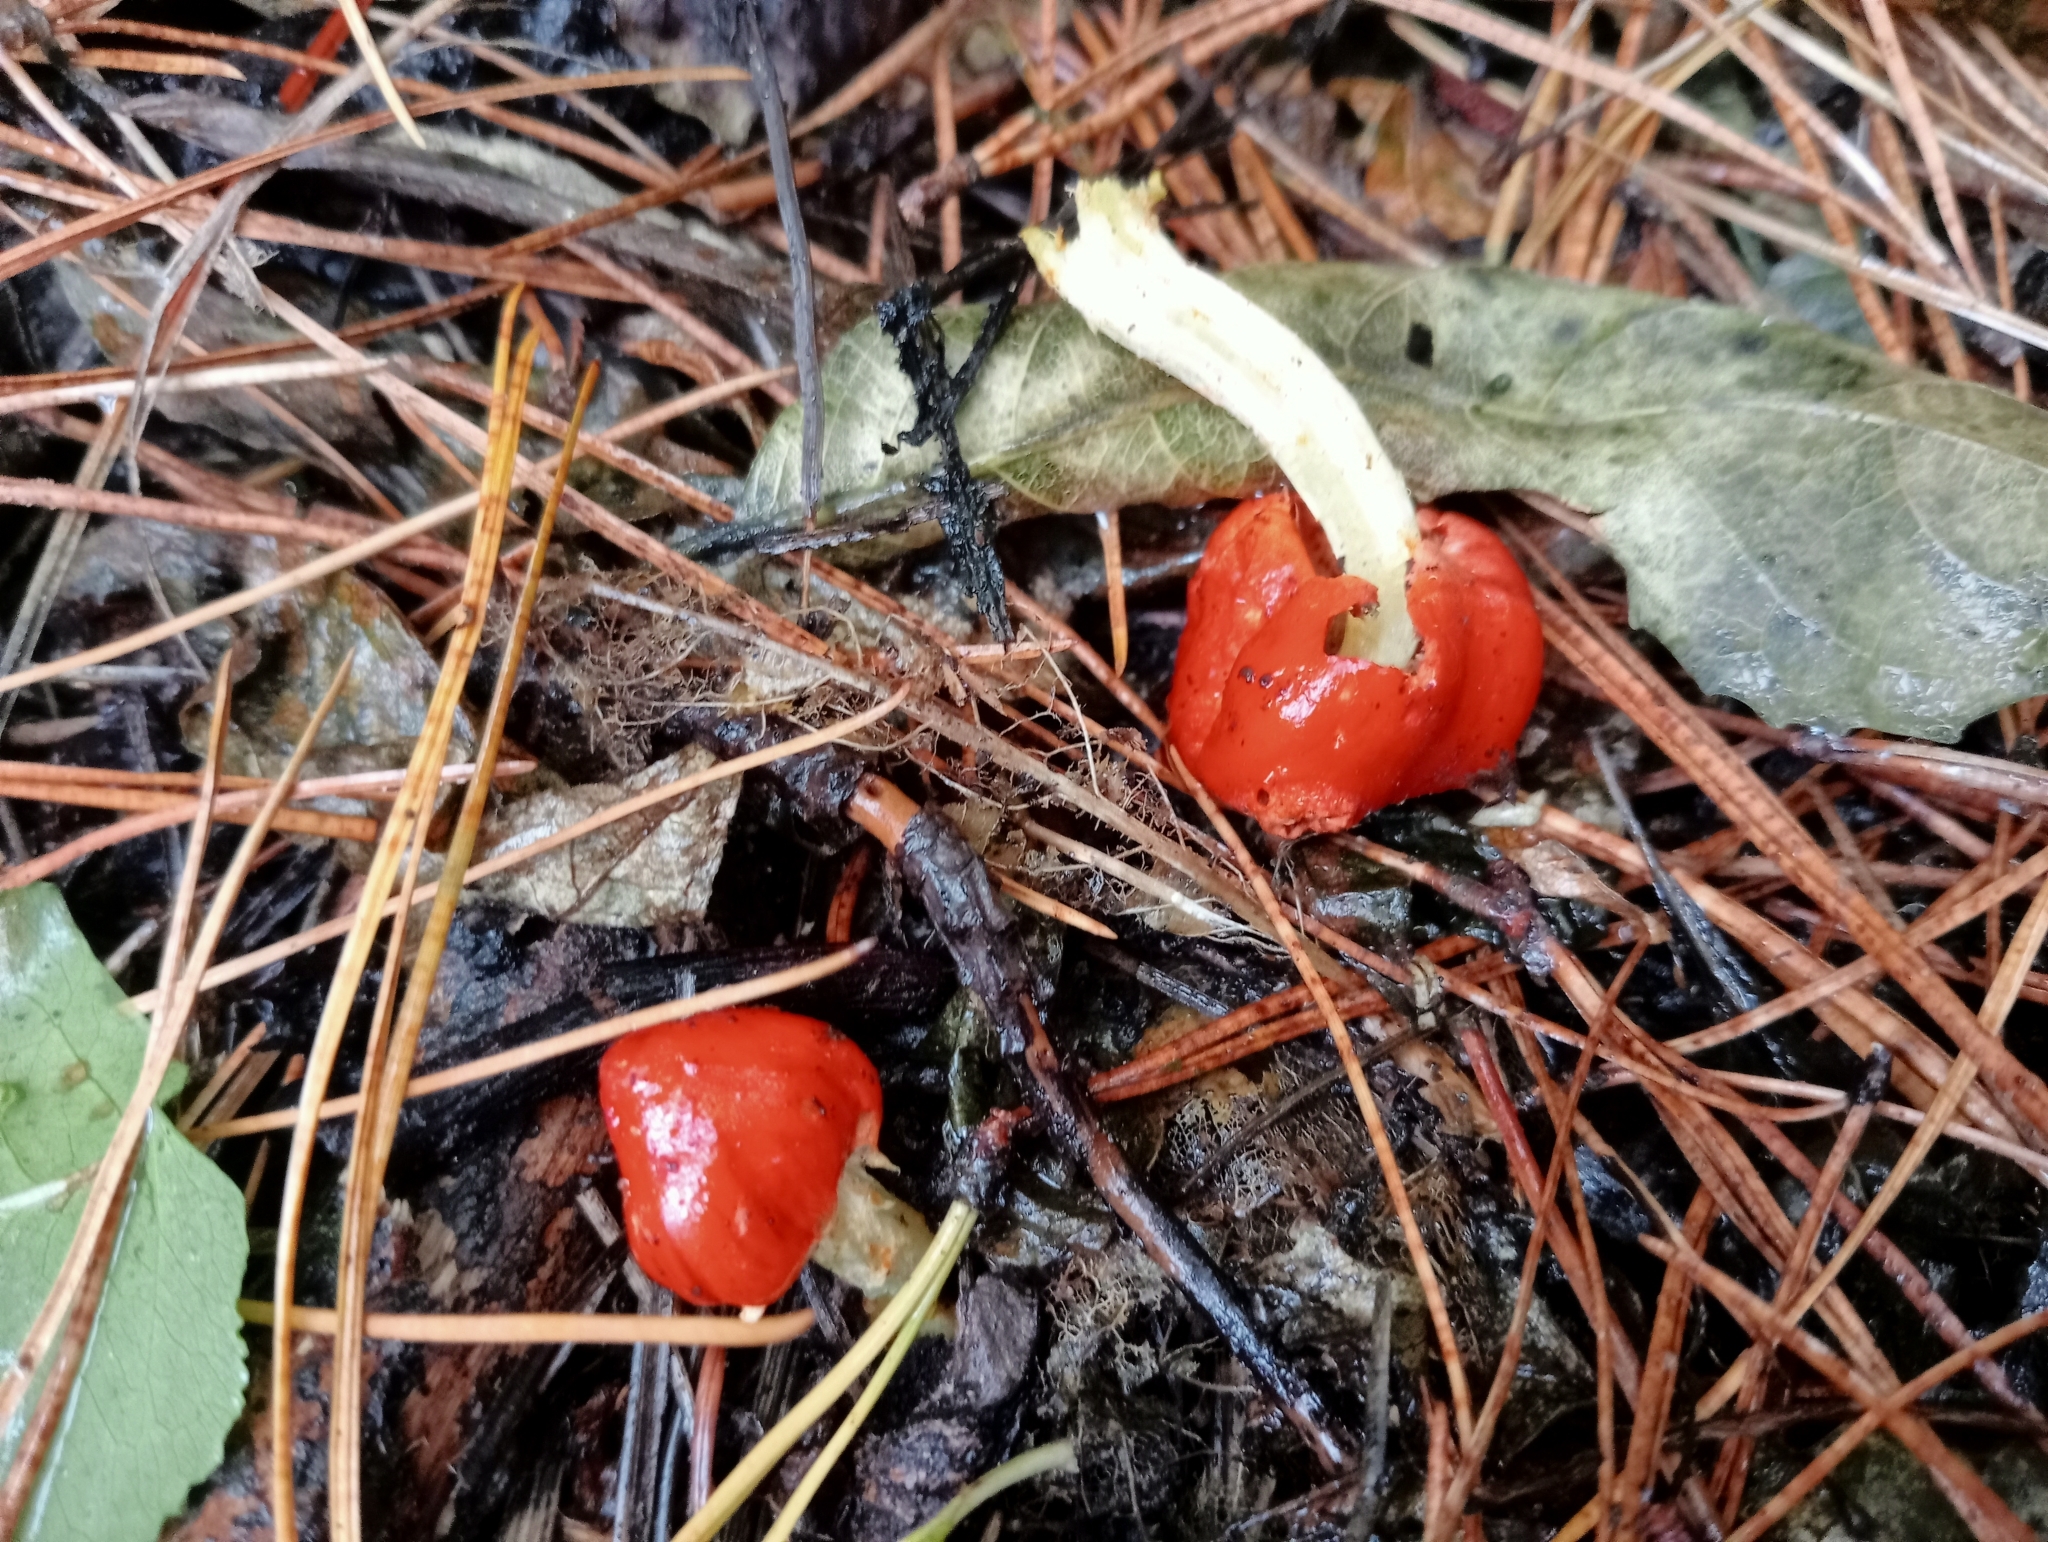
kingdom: Fungi
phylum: Basidiomycota
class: Agaricomycetes
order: Agaricales
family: Strophariaceae
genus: Leratiomyces
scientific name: Leratiomyces erythrocephalus
